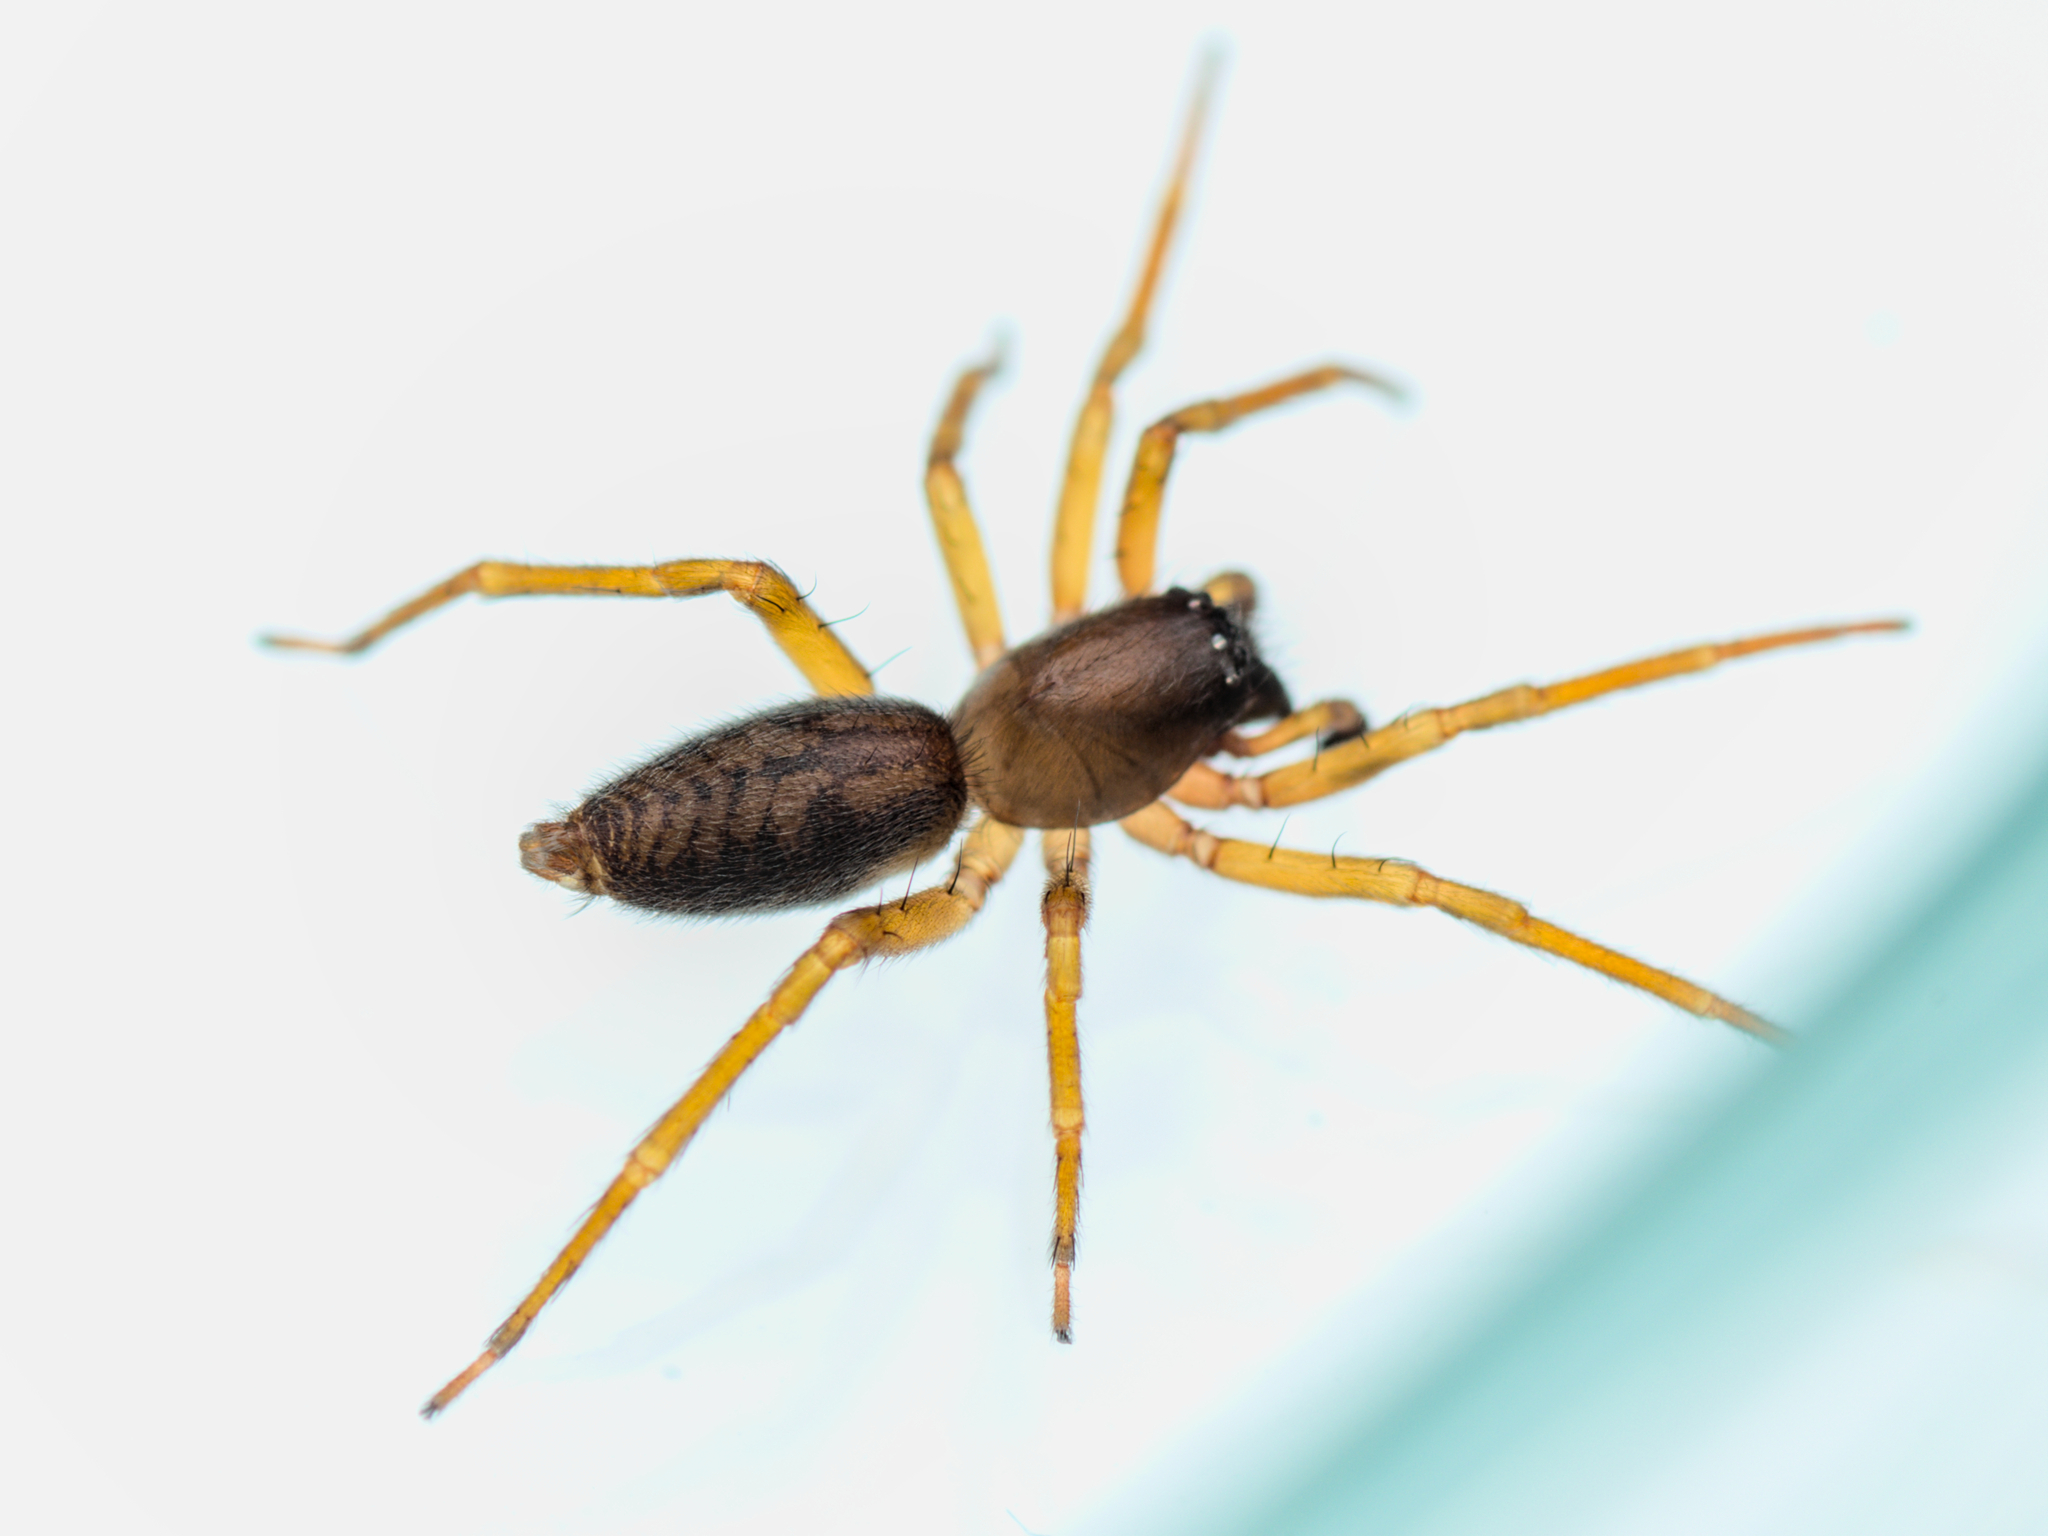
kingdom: Animalia
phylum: Arthropoda
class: Arachnida
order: Araneae
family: Clubionidae
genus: Clubiona
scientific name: Clubiona comta
